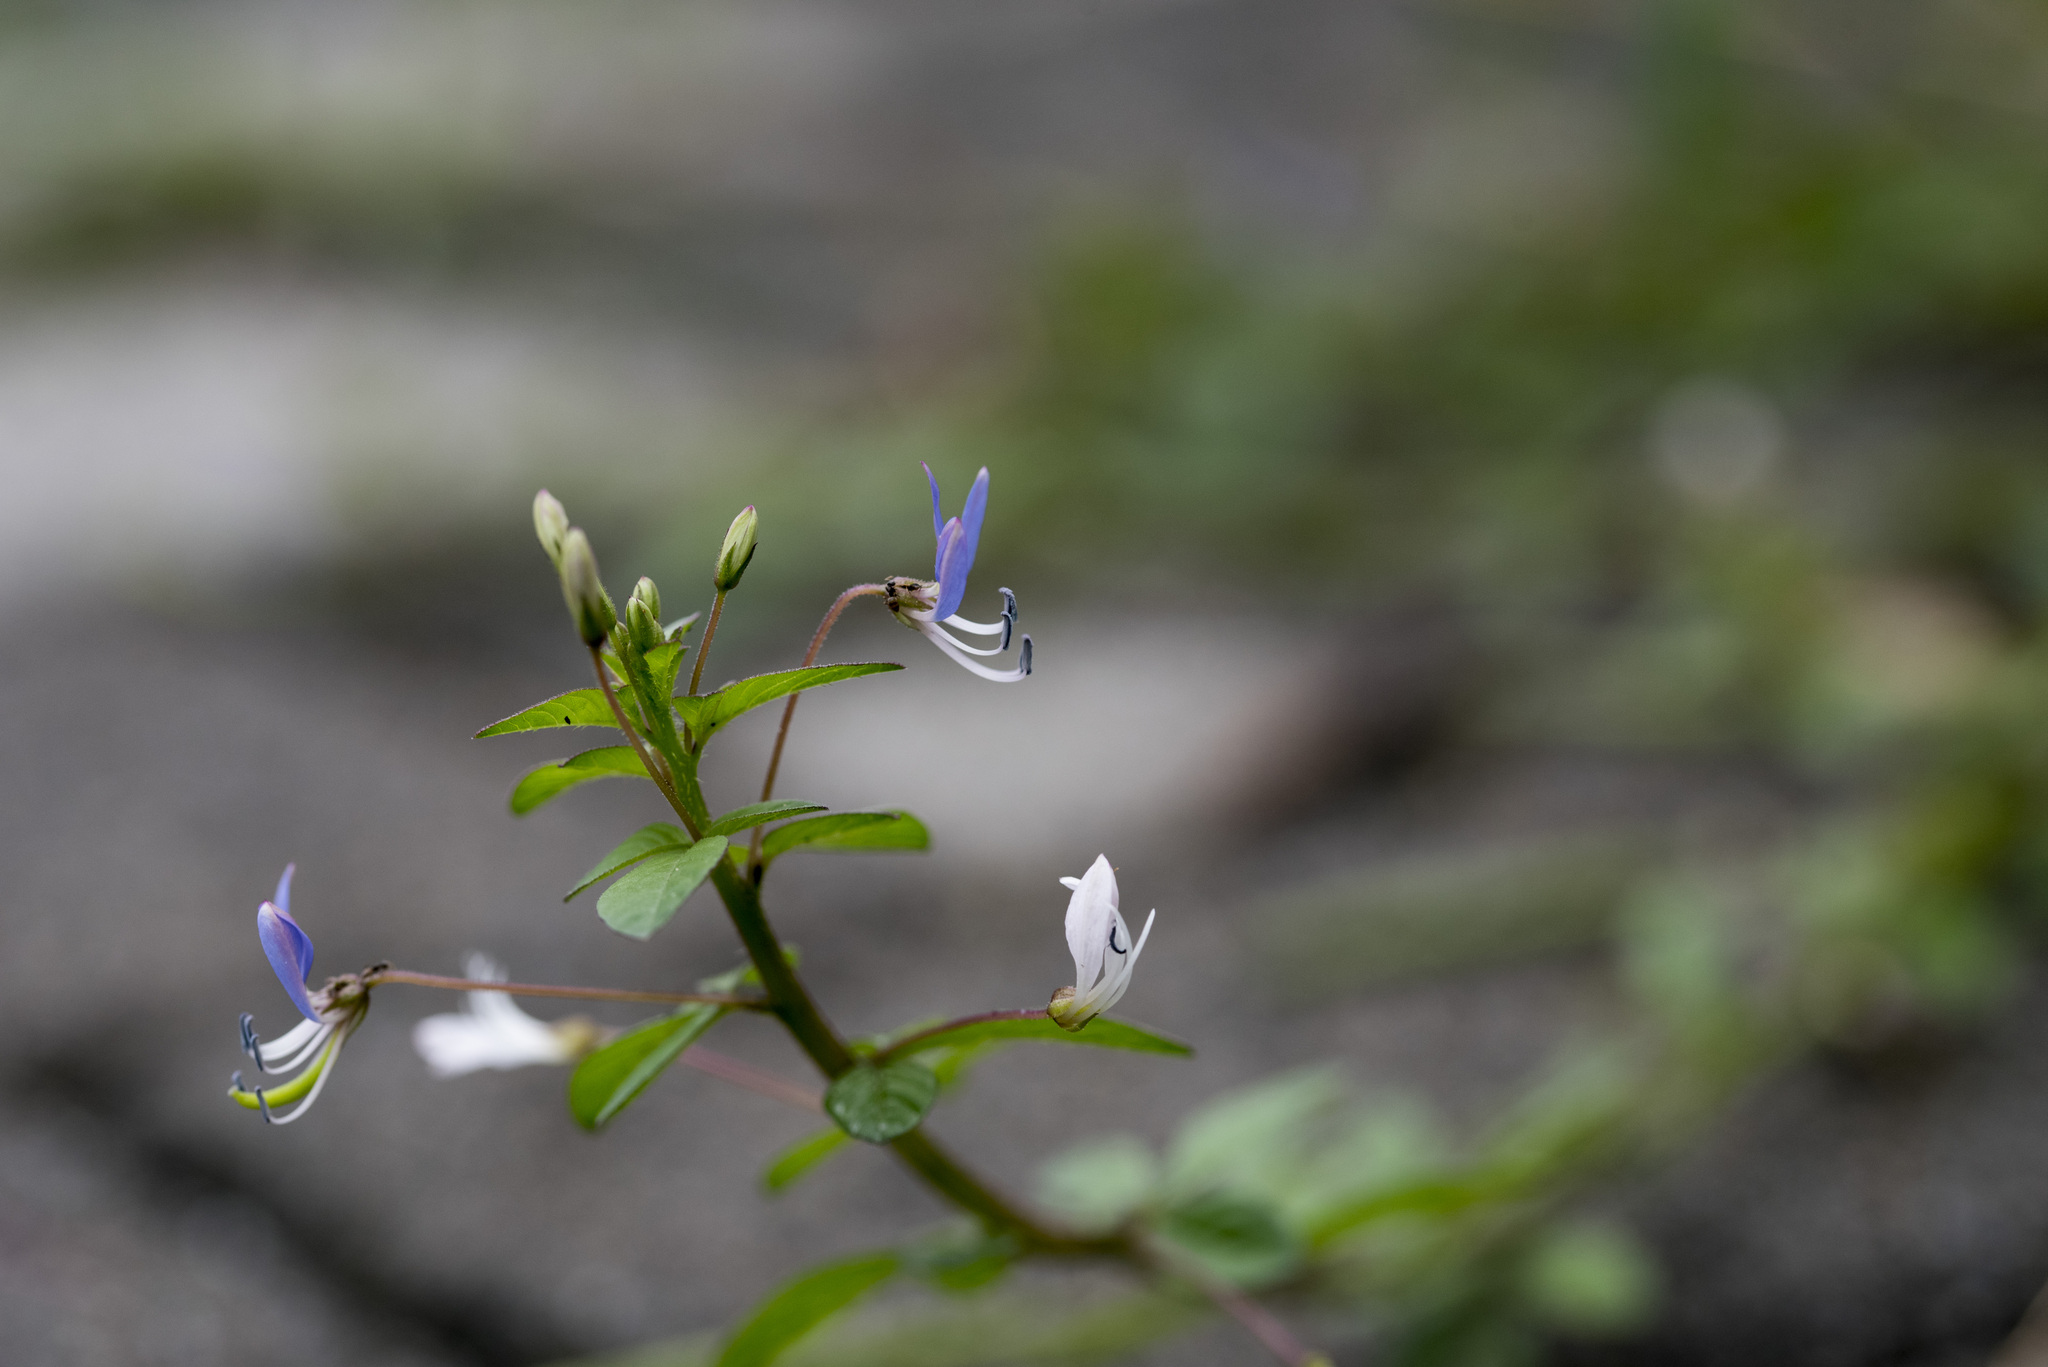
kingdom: Plantae
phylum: Tracheophyta
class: Magnoliopsida
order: Brassicales
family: Cleomaceae
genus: Sieruela
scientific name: Sieruela rutidosperma
